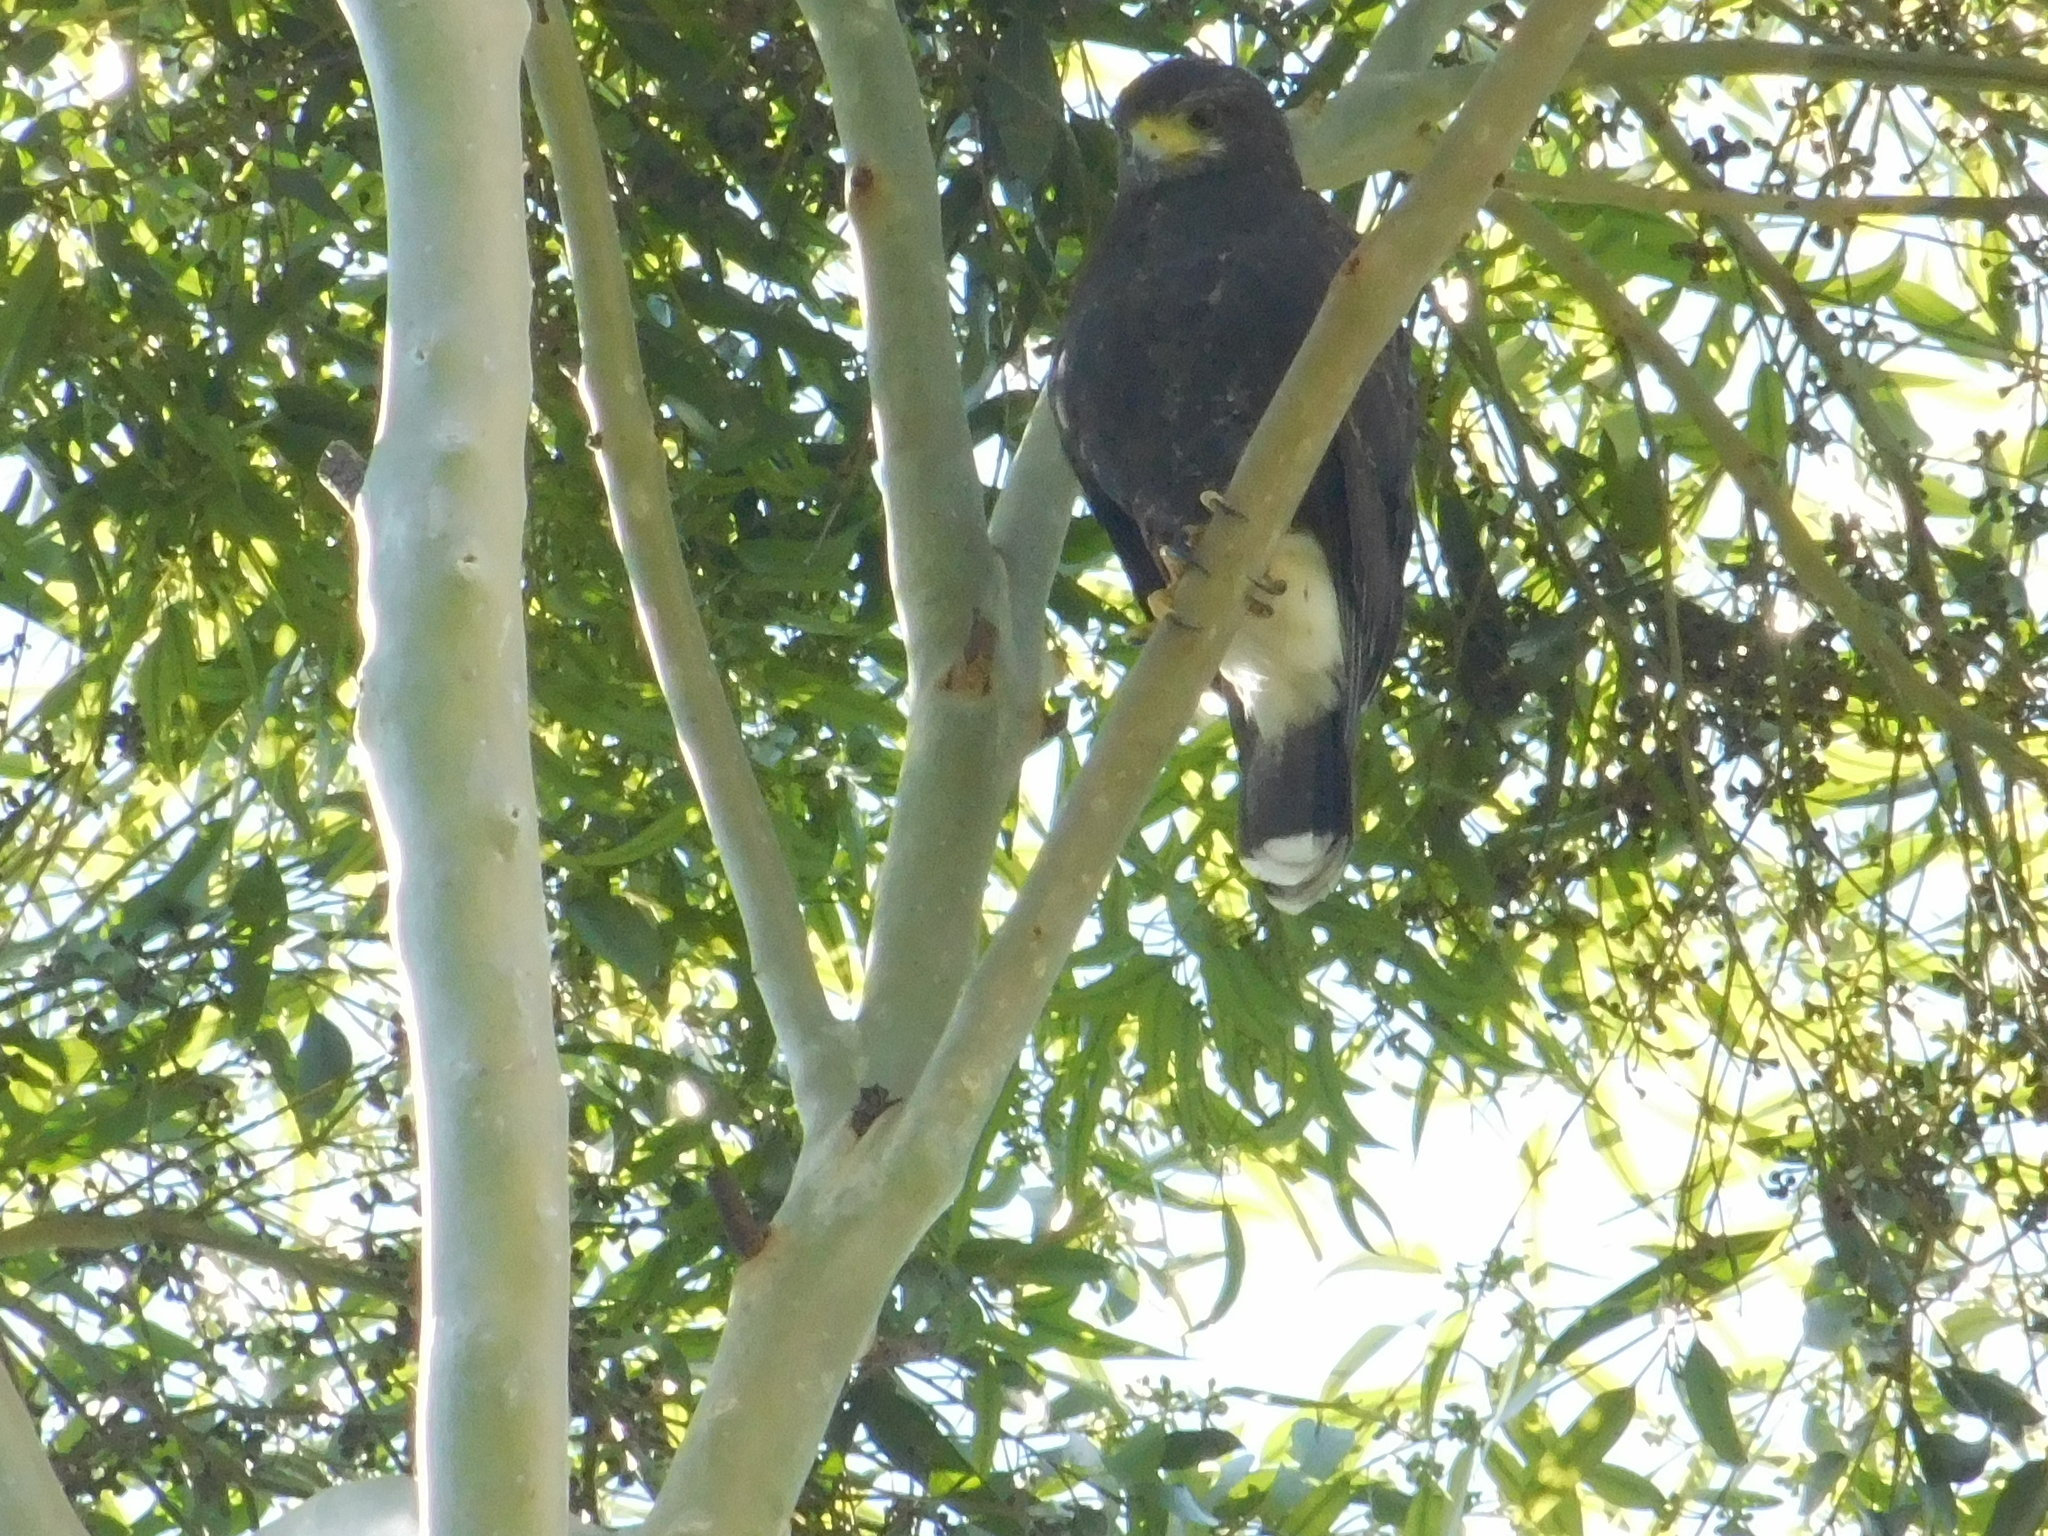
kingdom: Animalia
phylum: Chordata
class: Aves
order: Accipitriformes
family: Accipitridae
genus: Parabuteo
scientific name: Parabuteo unicinctus
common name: Harris's hawk
